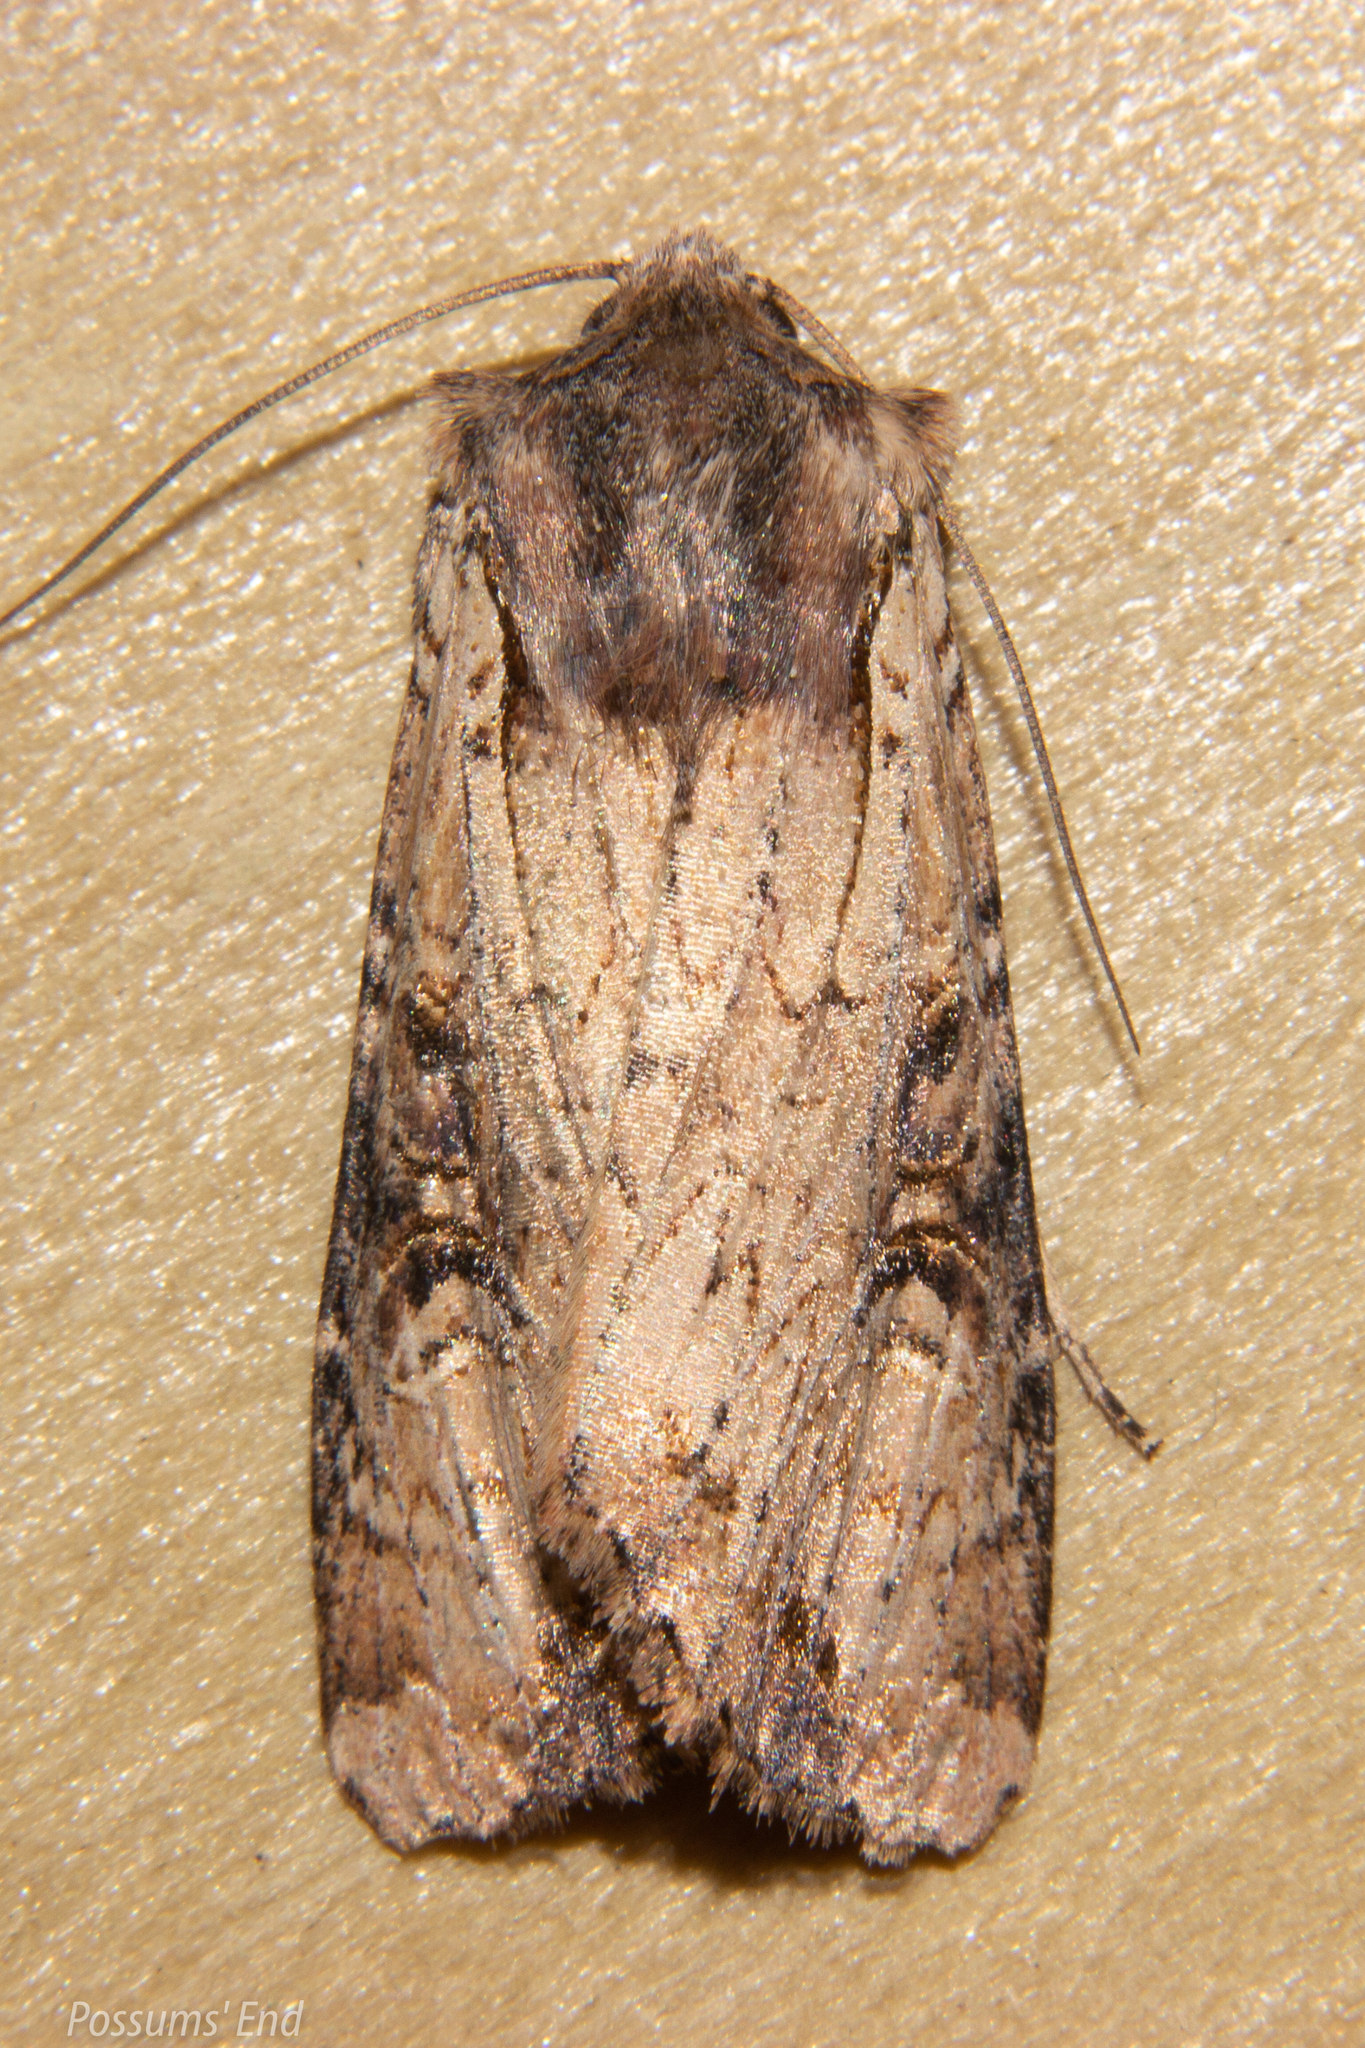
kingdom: Animalia
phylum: Arthropoda
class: Insecta
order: Lepidoptera
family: Noctuidae
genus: Ichneutica
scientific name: Ichneutica omoplaca
